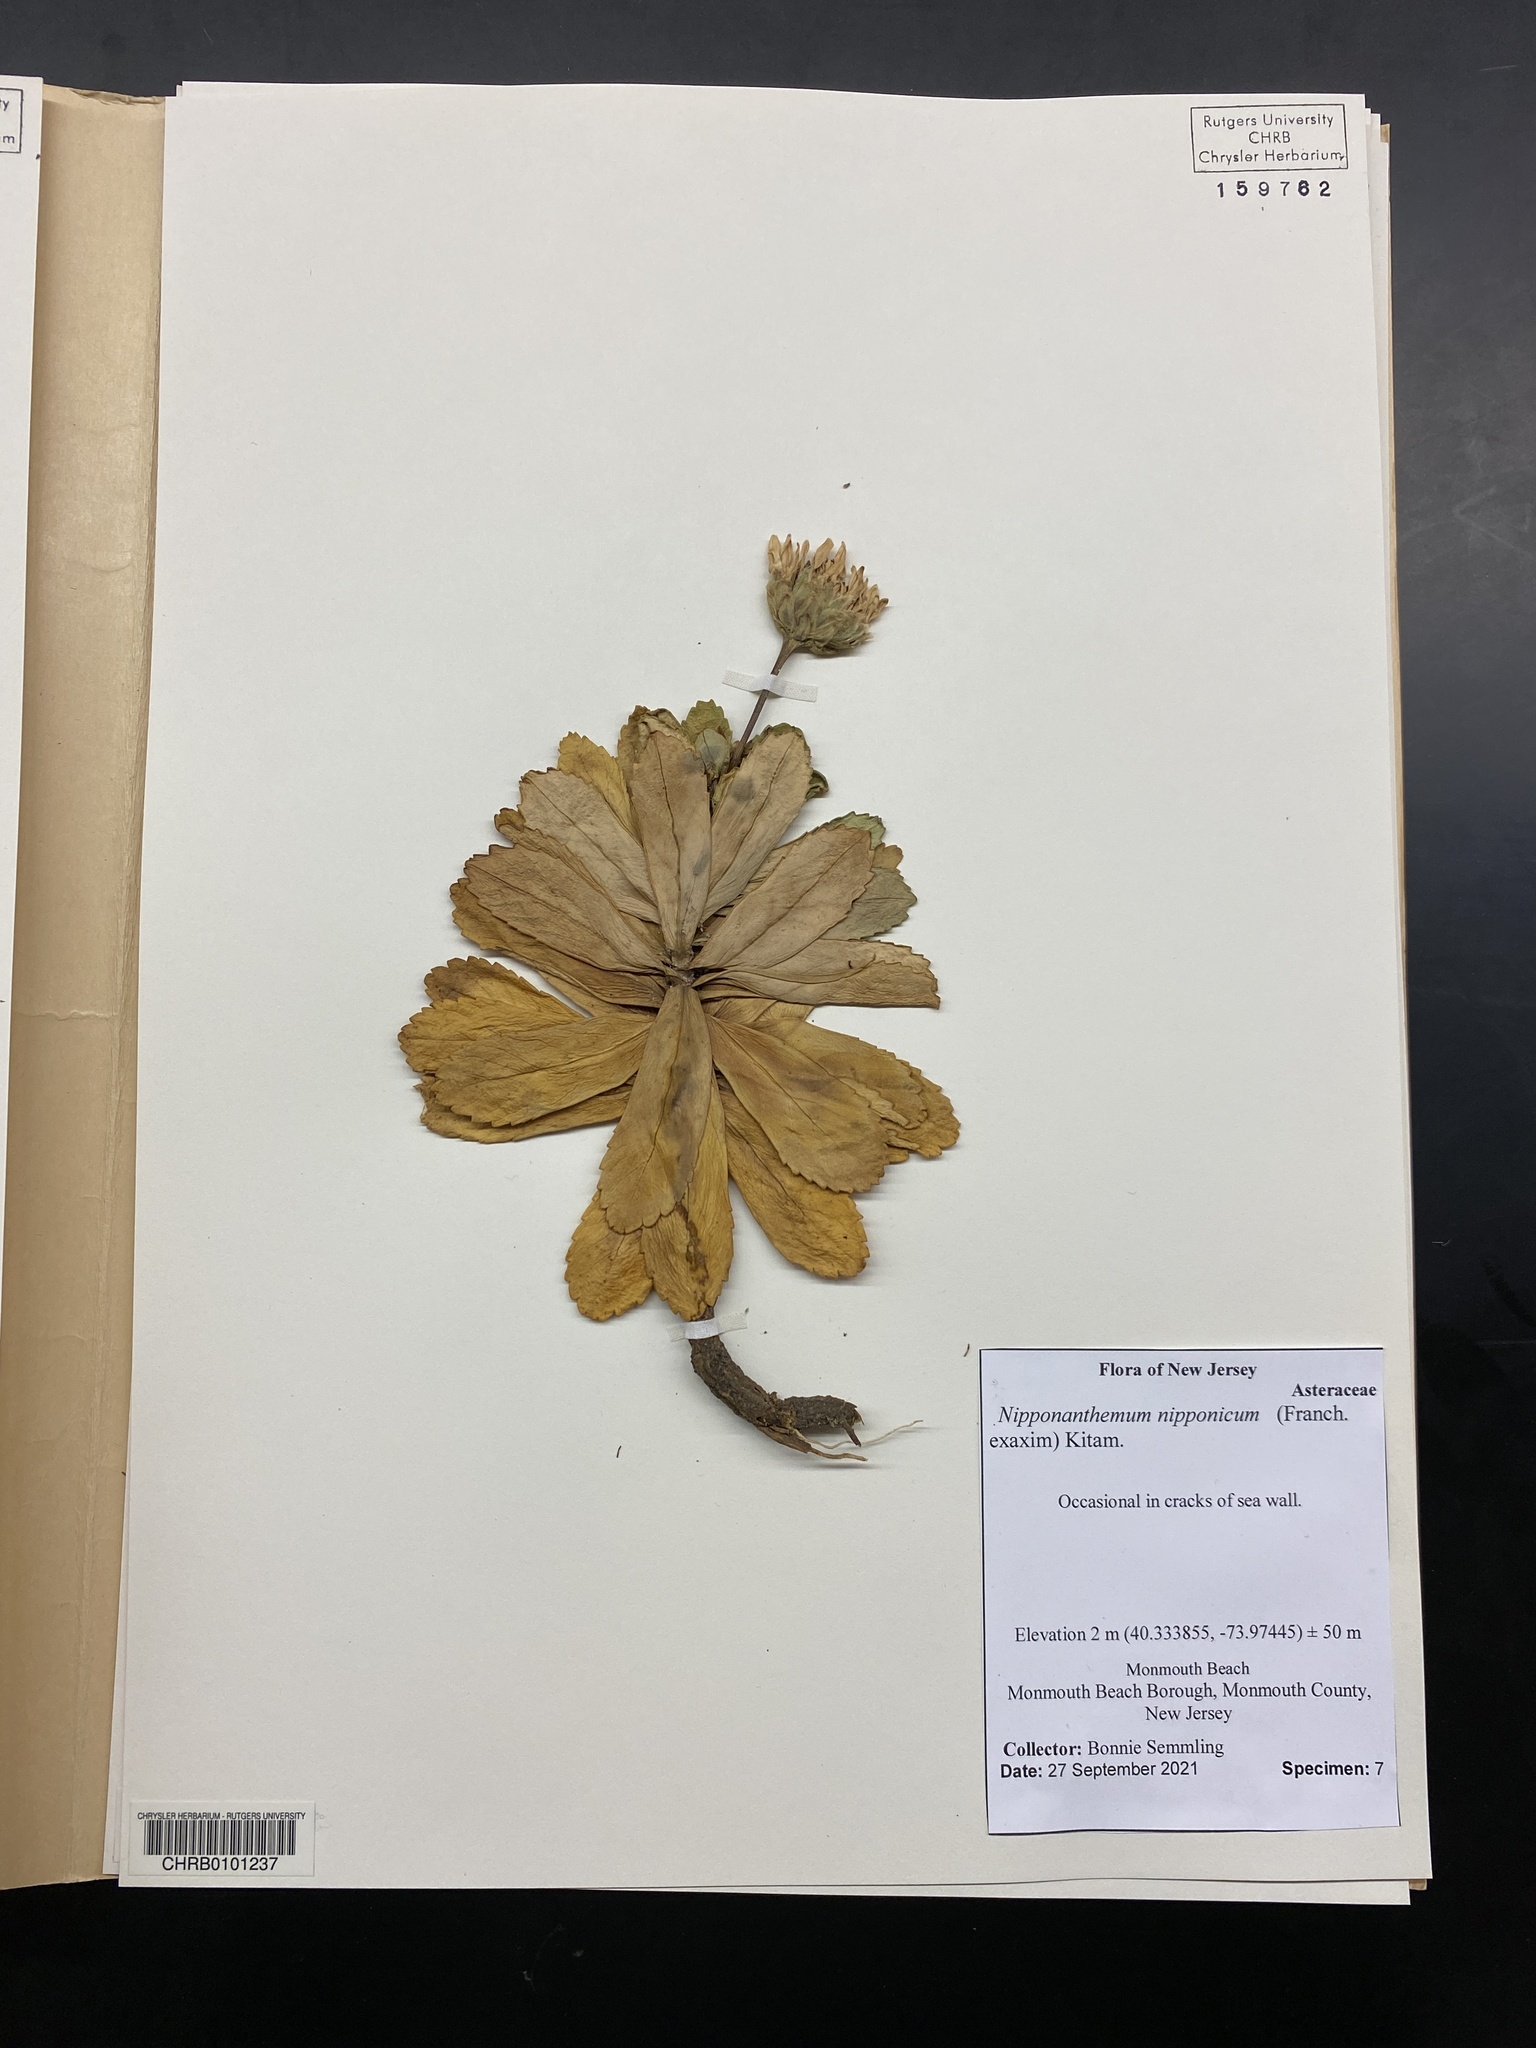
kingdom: Plantae
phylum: Tracheophyta
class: Magnoliopsida
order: Asterales
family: Asteraceae
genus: Nipponanthemum
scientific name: Nipponanthemum nipponicum
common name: Nippon daisy
